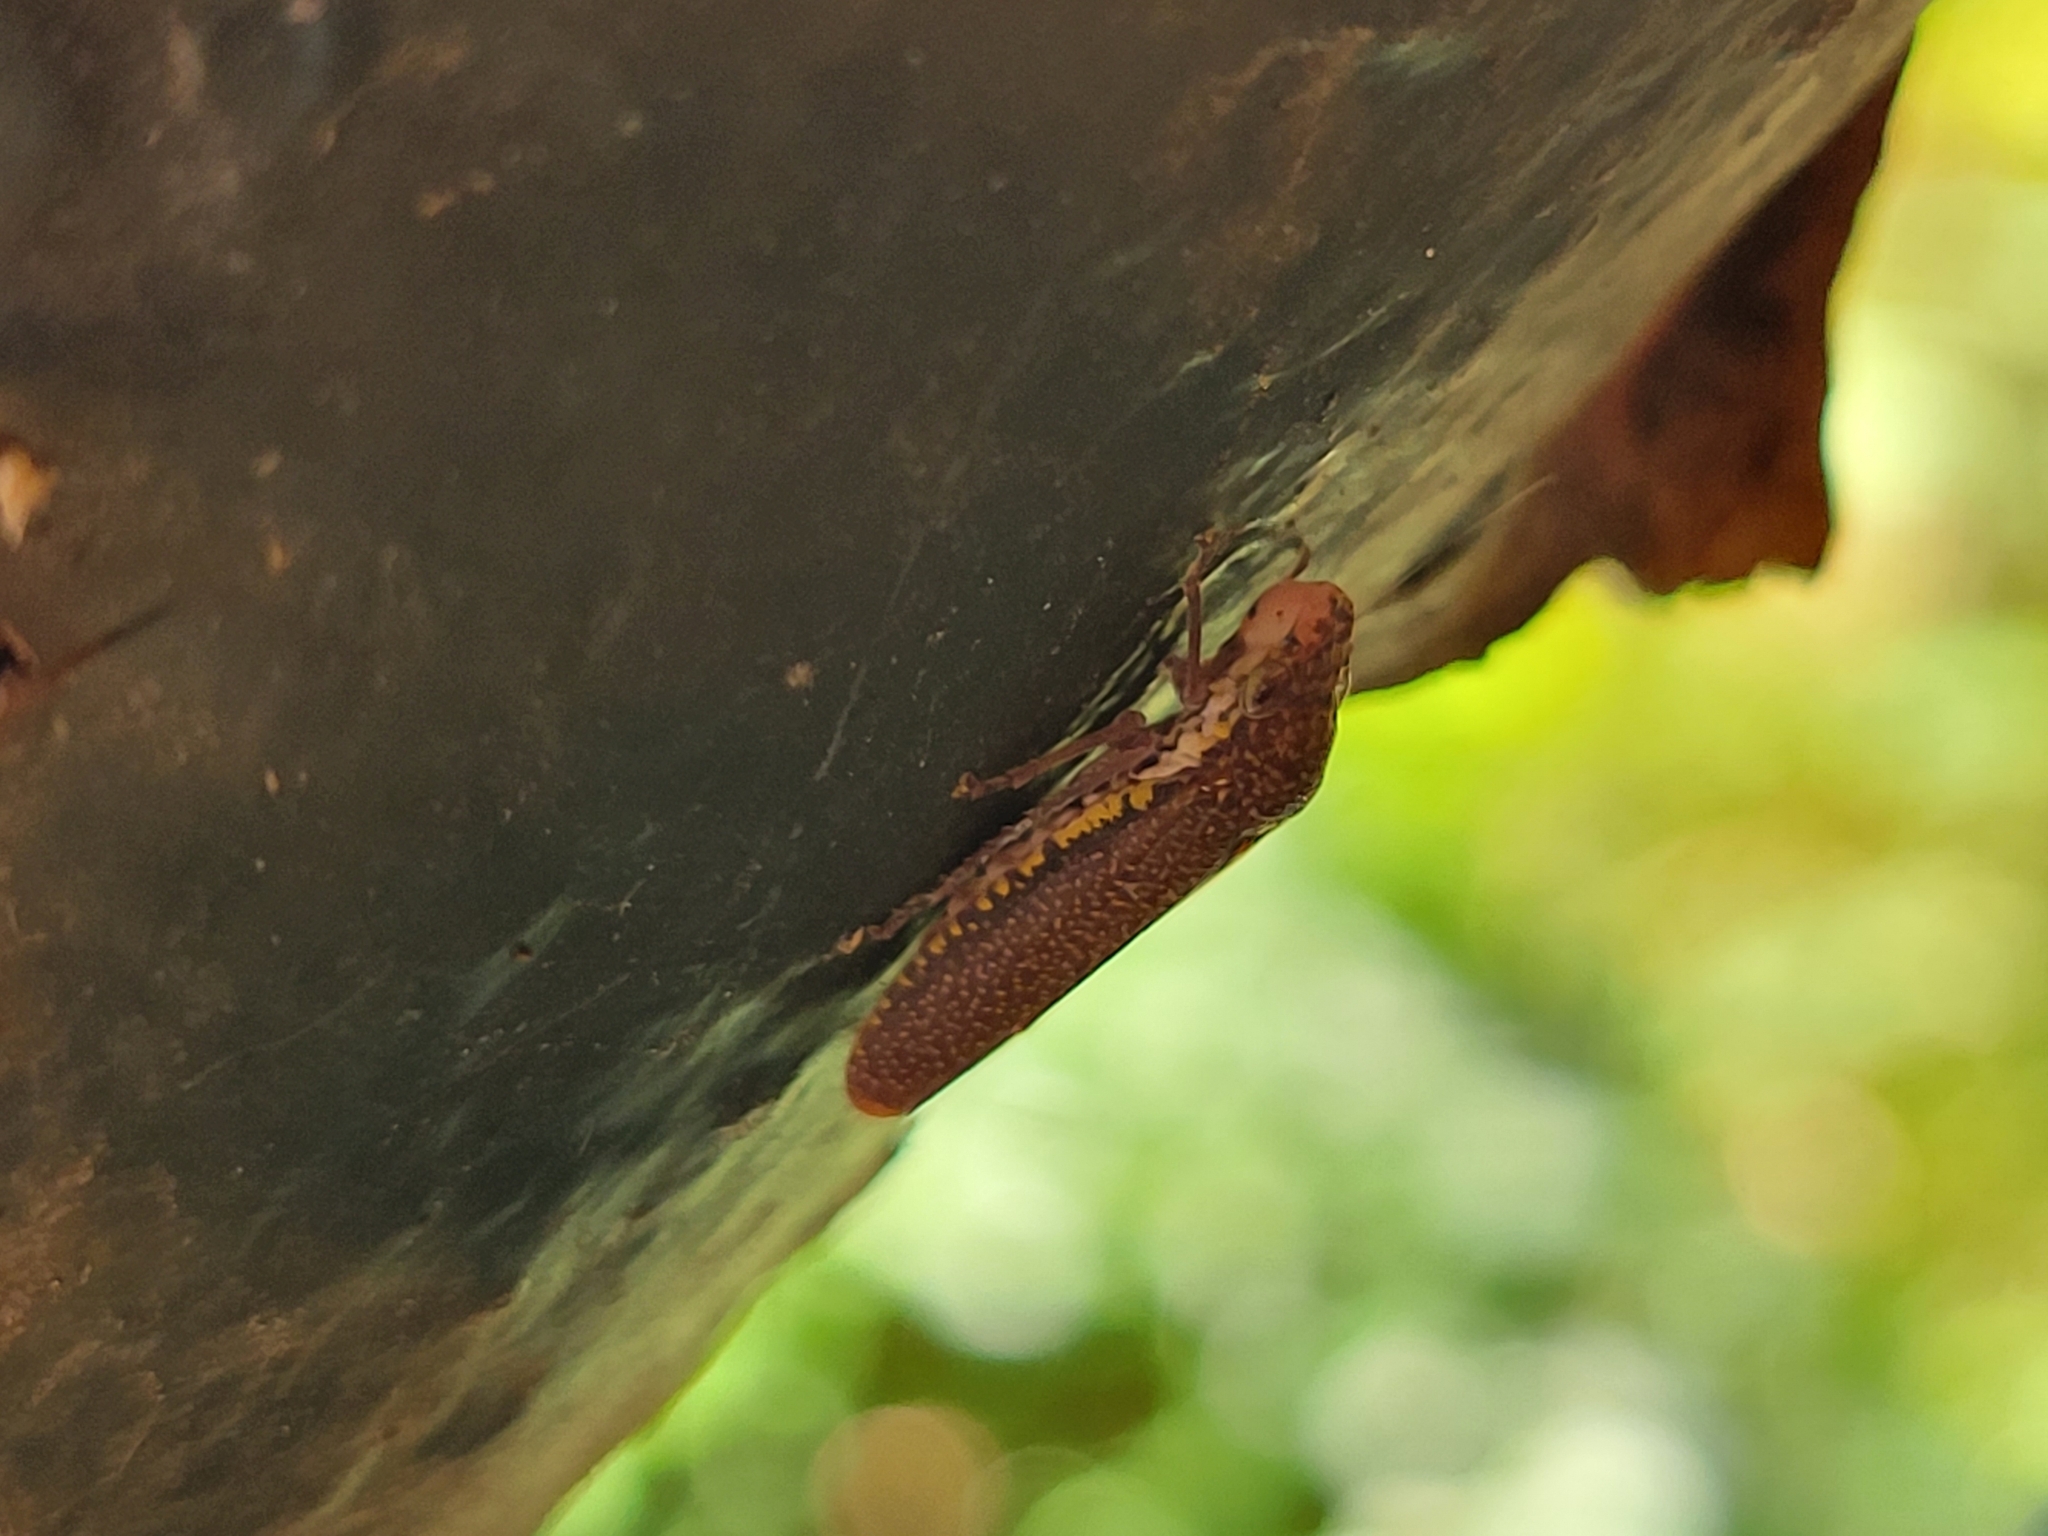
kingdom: Animalia
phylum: Arthropoda
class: Insecta
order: Hemiptera
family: Cicadellidae
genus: Paraulacizes
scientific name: Paraulacizes irrorata
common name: Speckled sharpshooter
